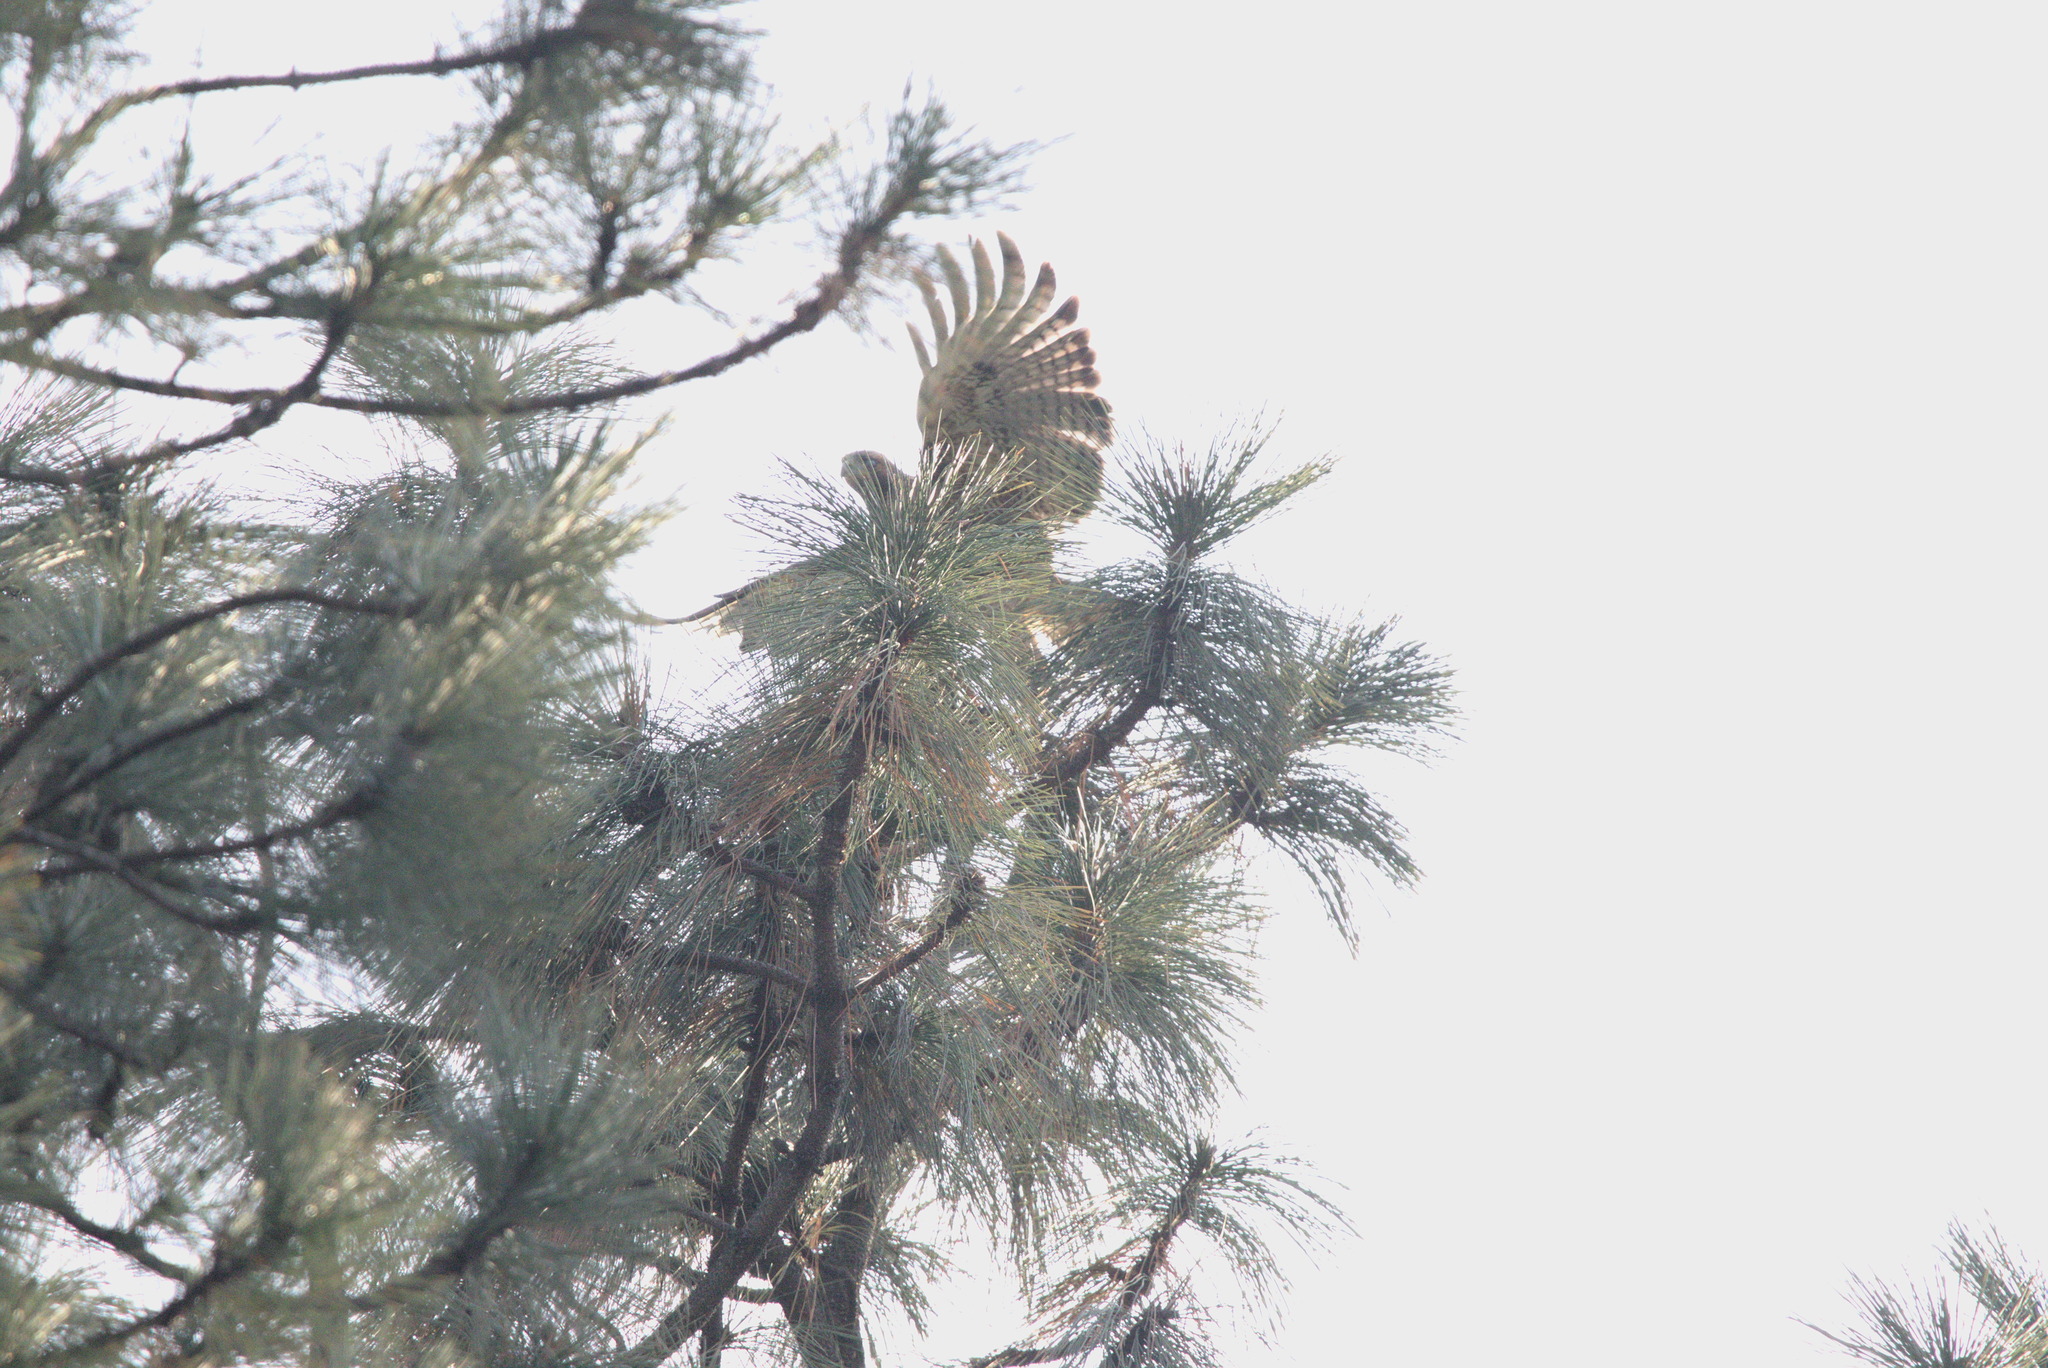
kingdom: Animalia
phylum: Chordata
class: Aves
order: Accipitriformes
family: Accipitridae
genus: Buteo
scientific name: Buteo jamaicensis
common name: Red-tailed hawk
